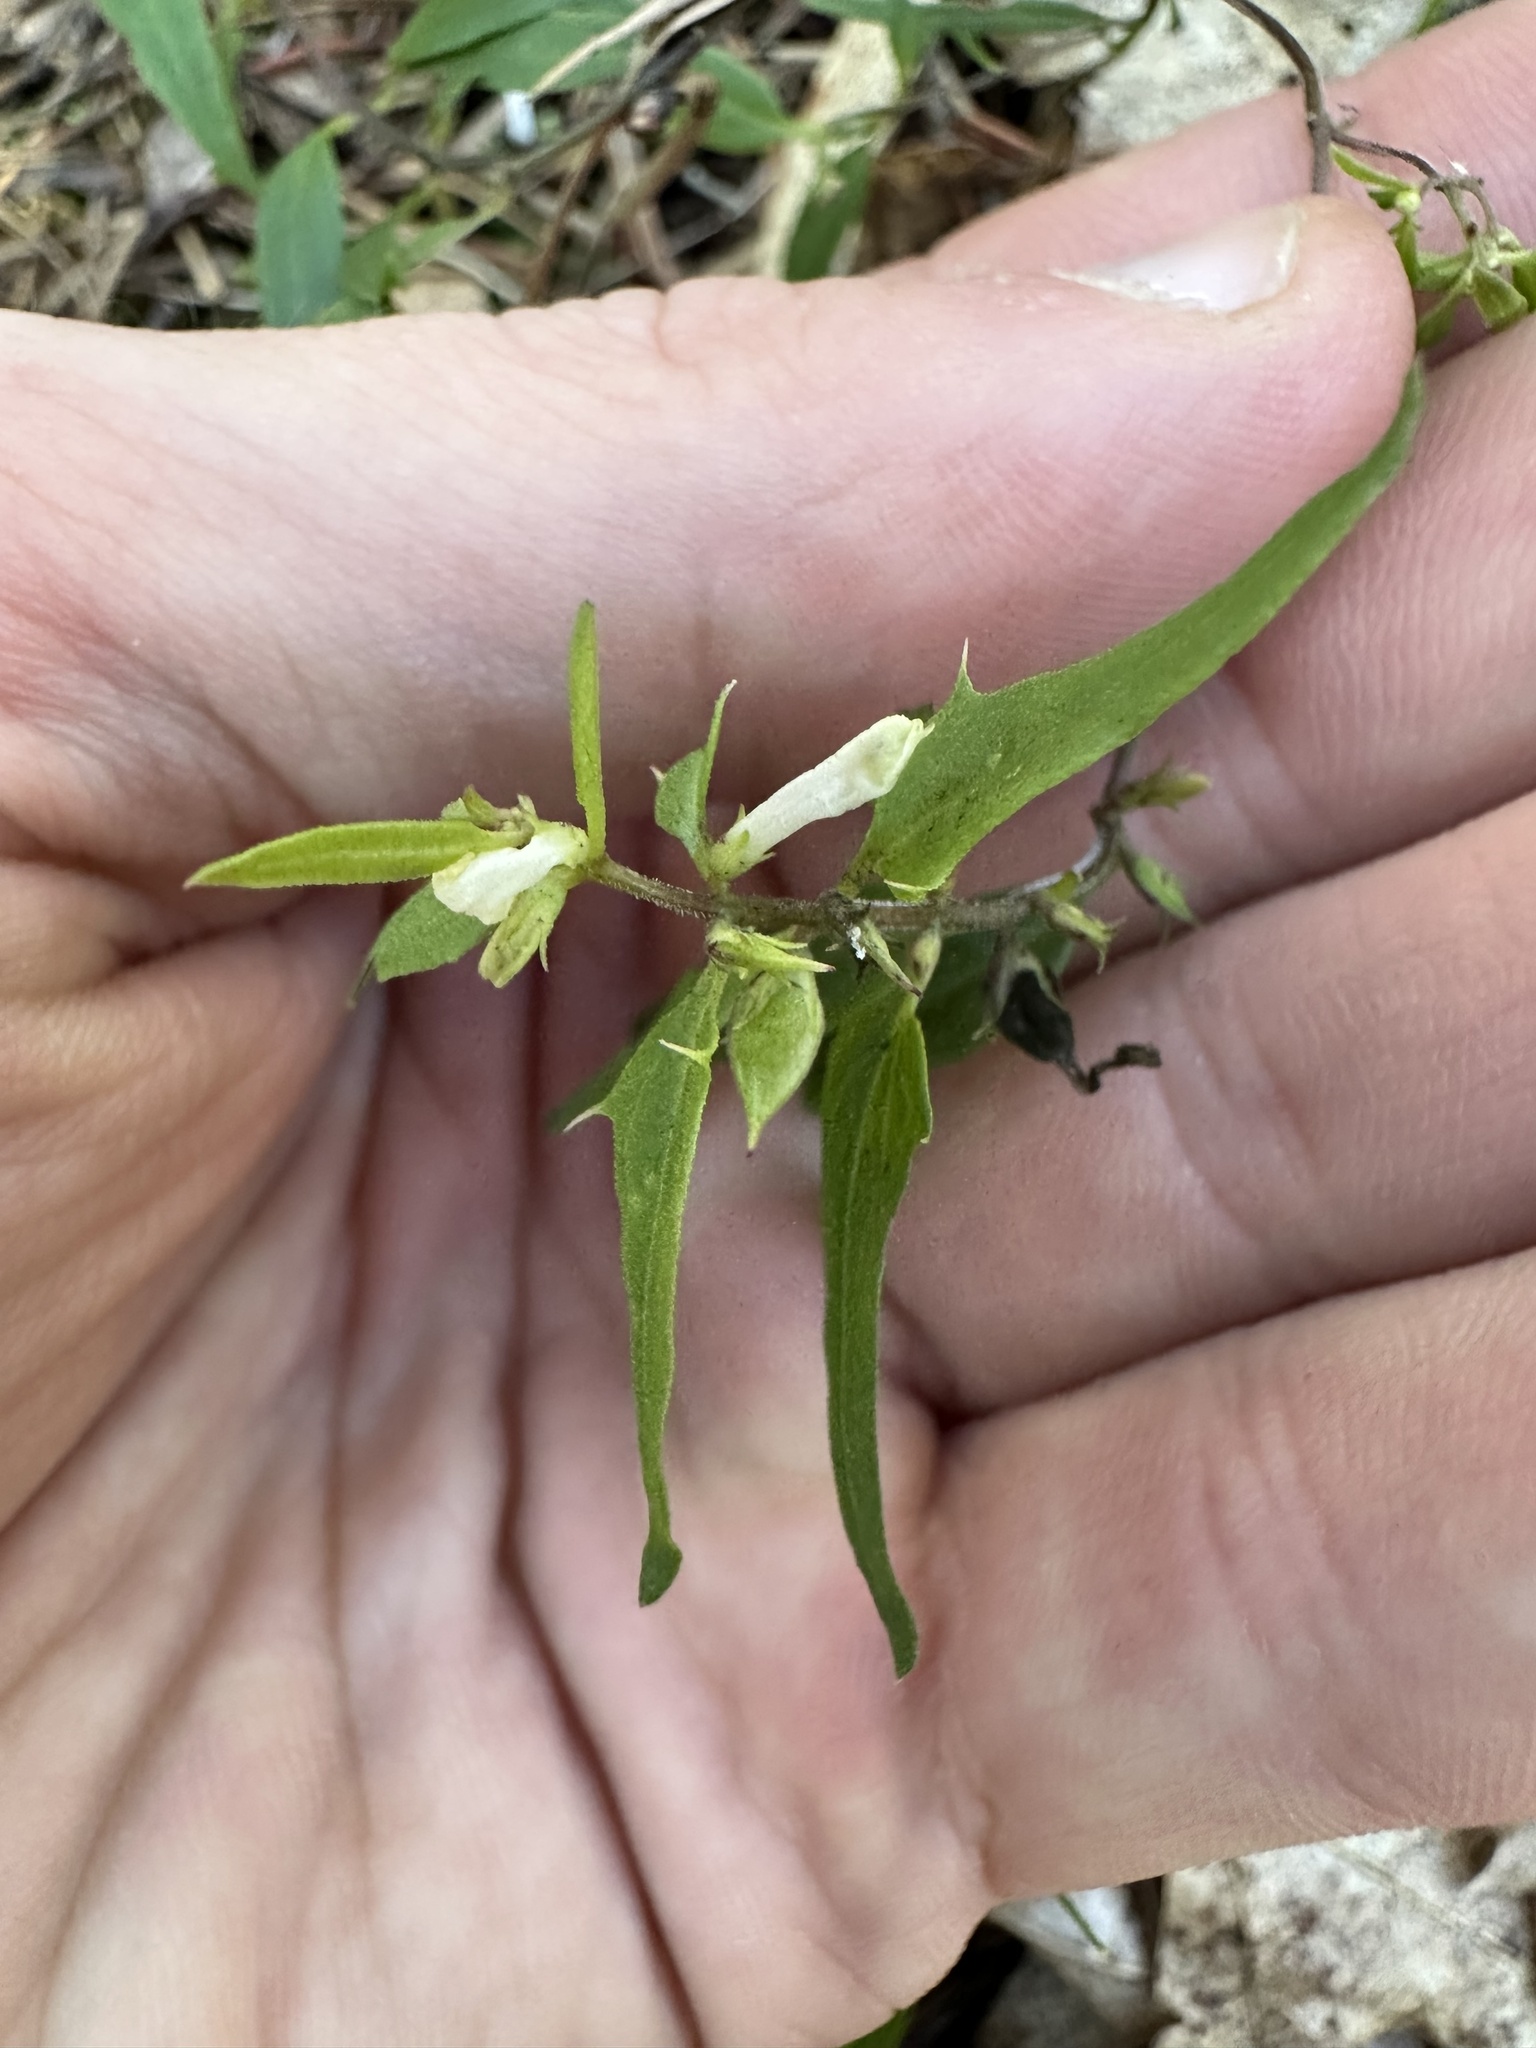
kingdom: Plantae
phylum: Tracheophyta
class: Magnoliopsida
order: Lamiales
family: Orobanchaceae
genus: Melampyrum
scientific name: Melampyrum lineare
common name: American cow-wheat
